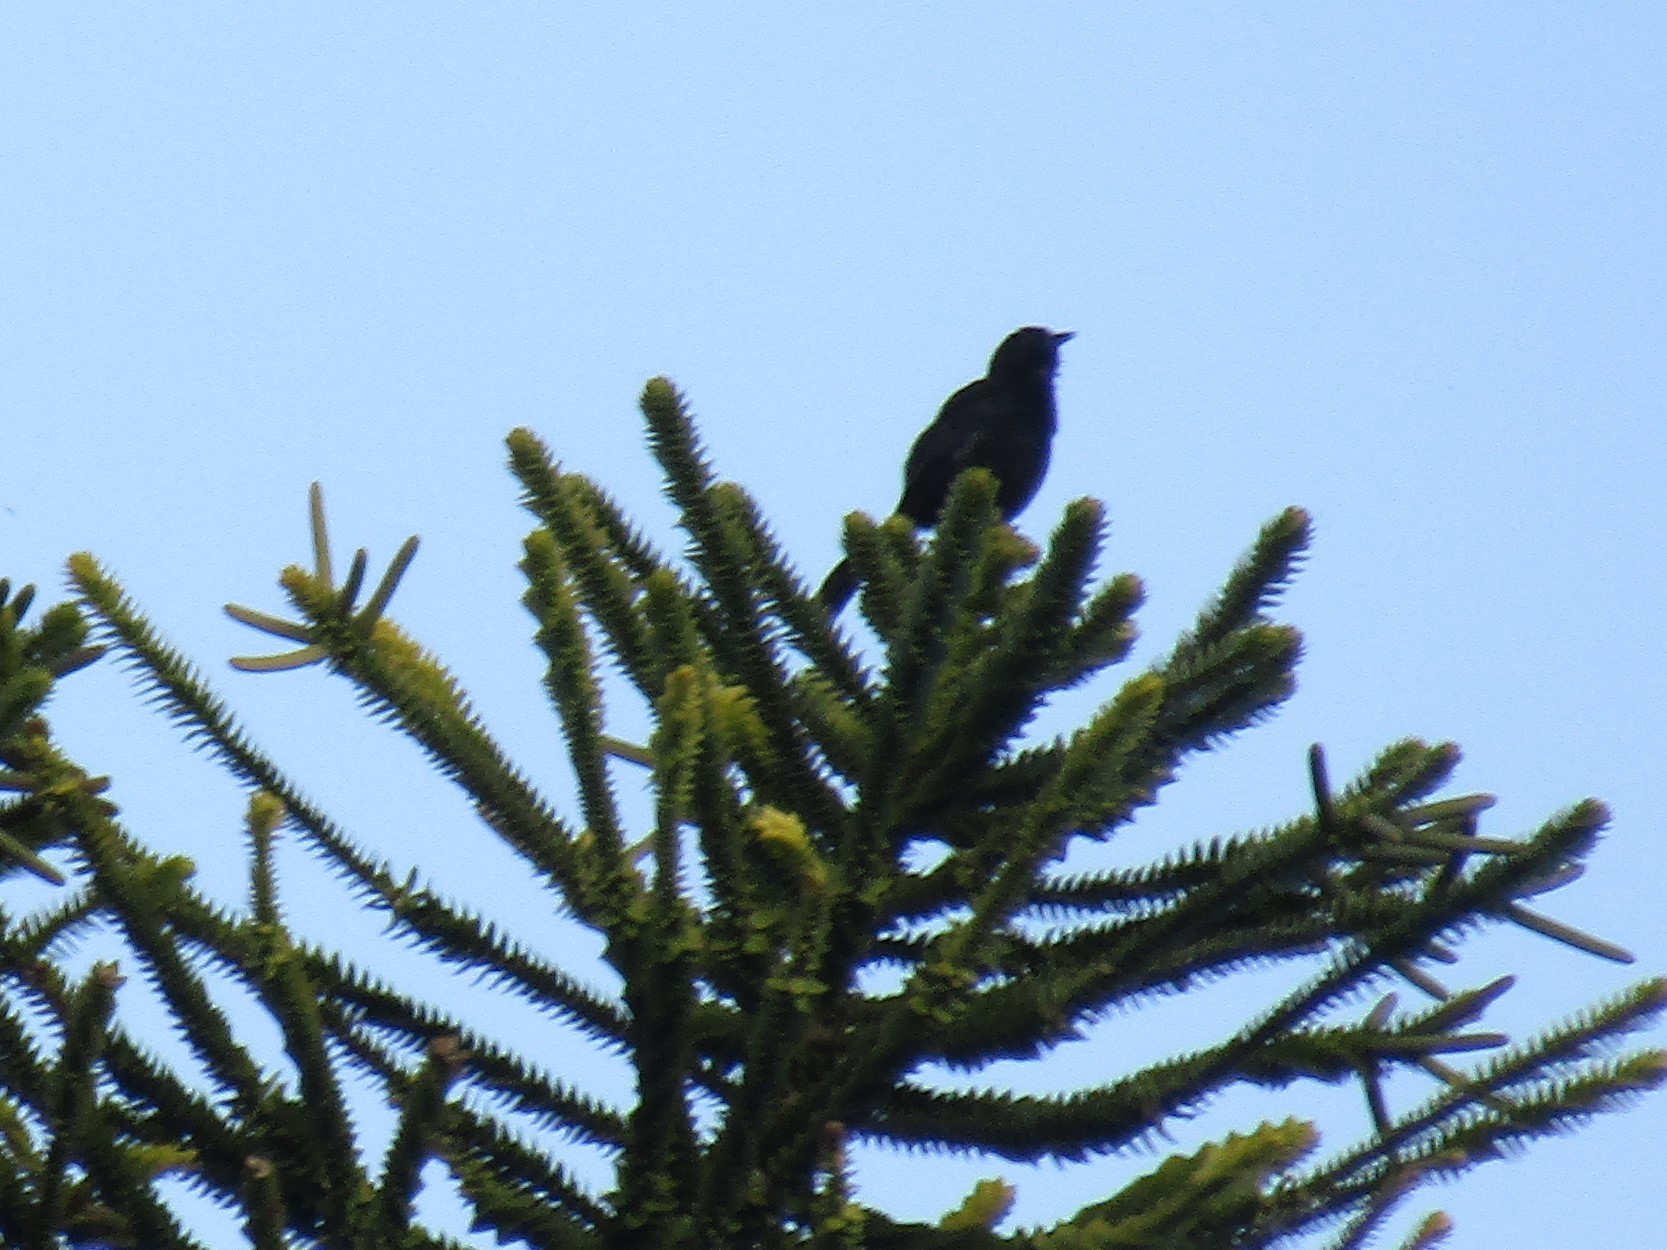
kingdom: Animalia
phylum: Chordata
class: Aves
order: Passeriformes
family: Icteridae
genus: Icterus
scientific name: Icterus cayanensis
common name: Epaulet oriole
